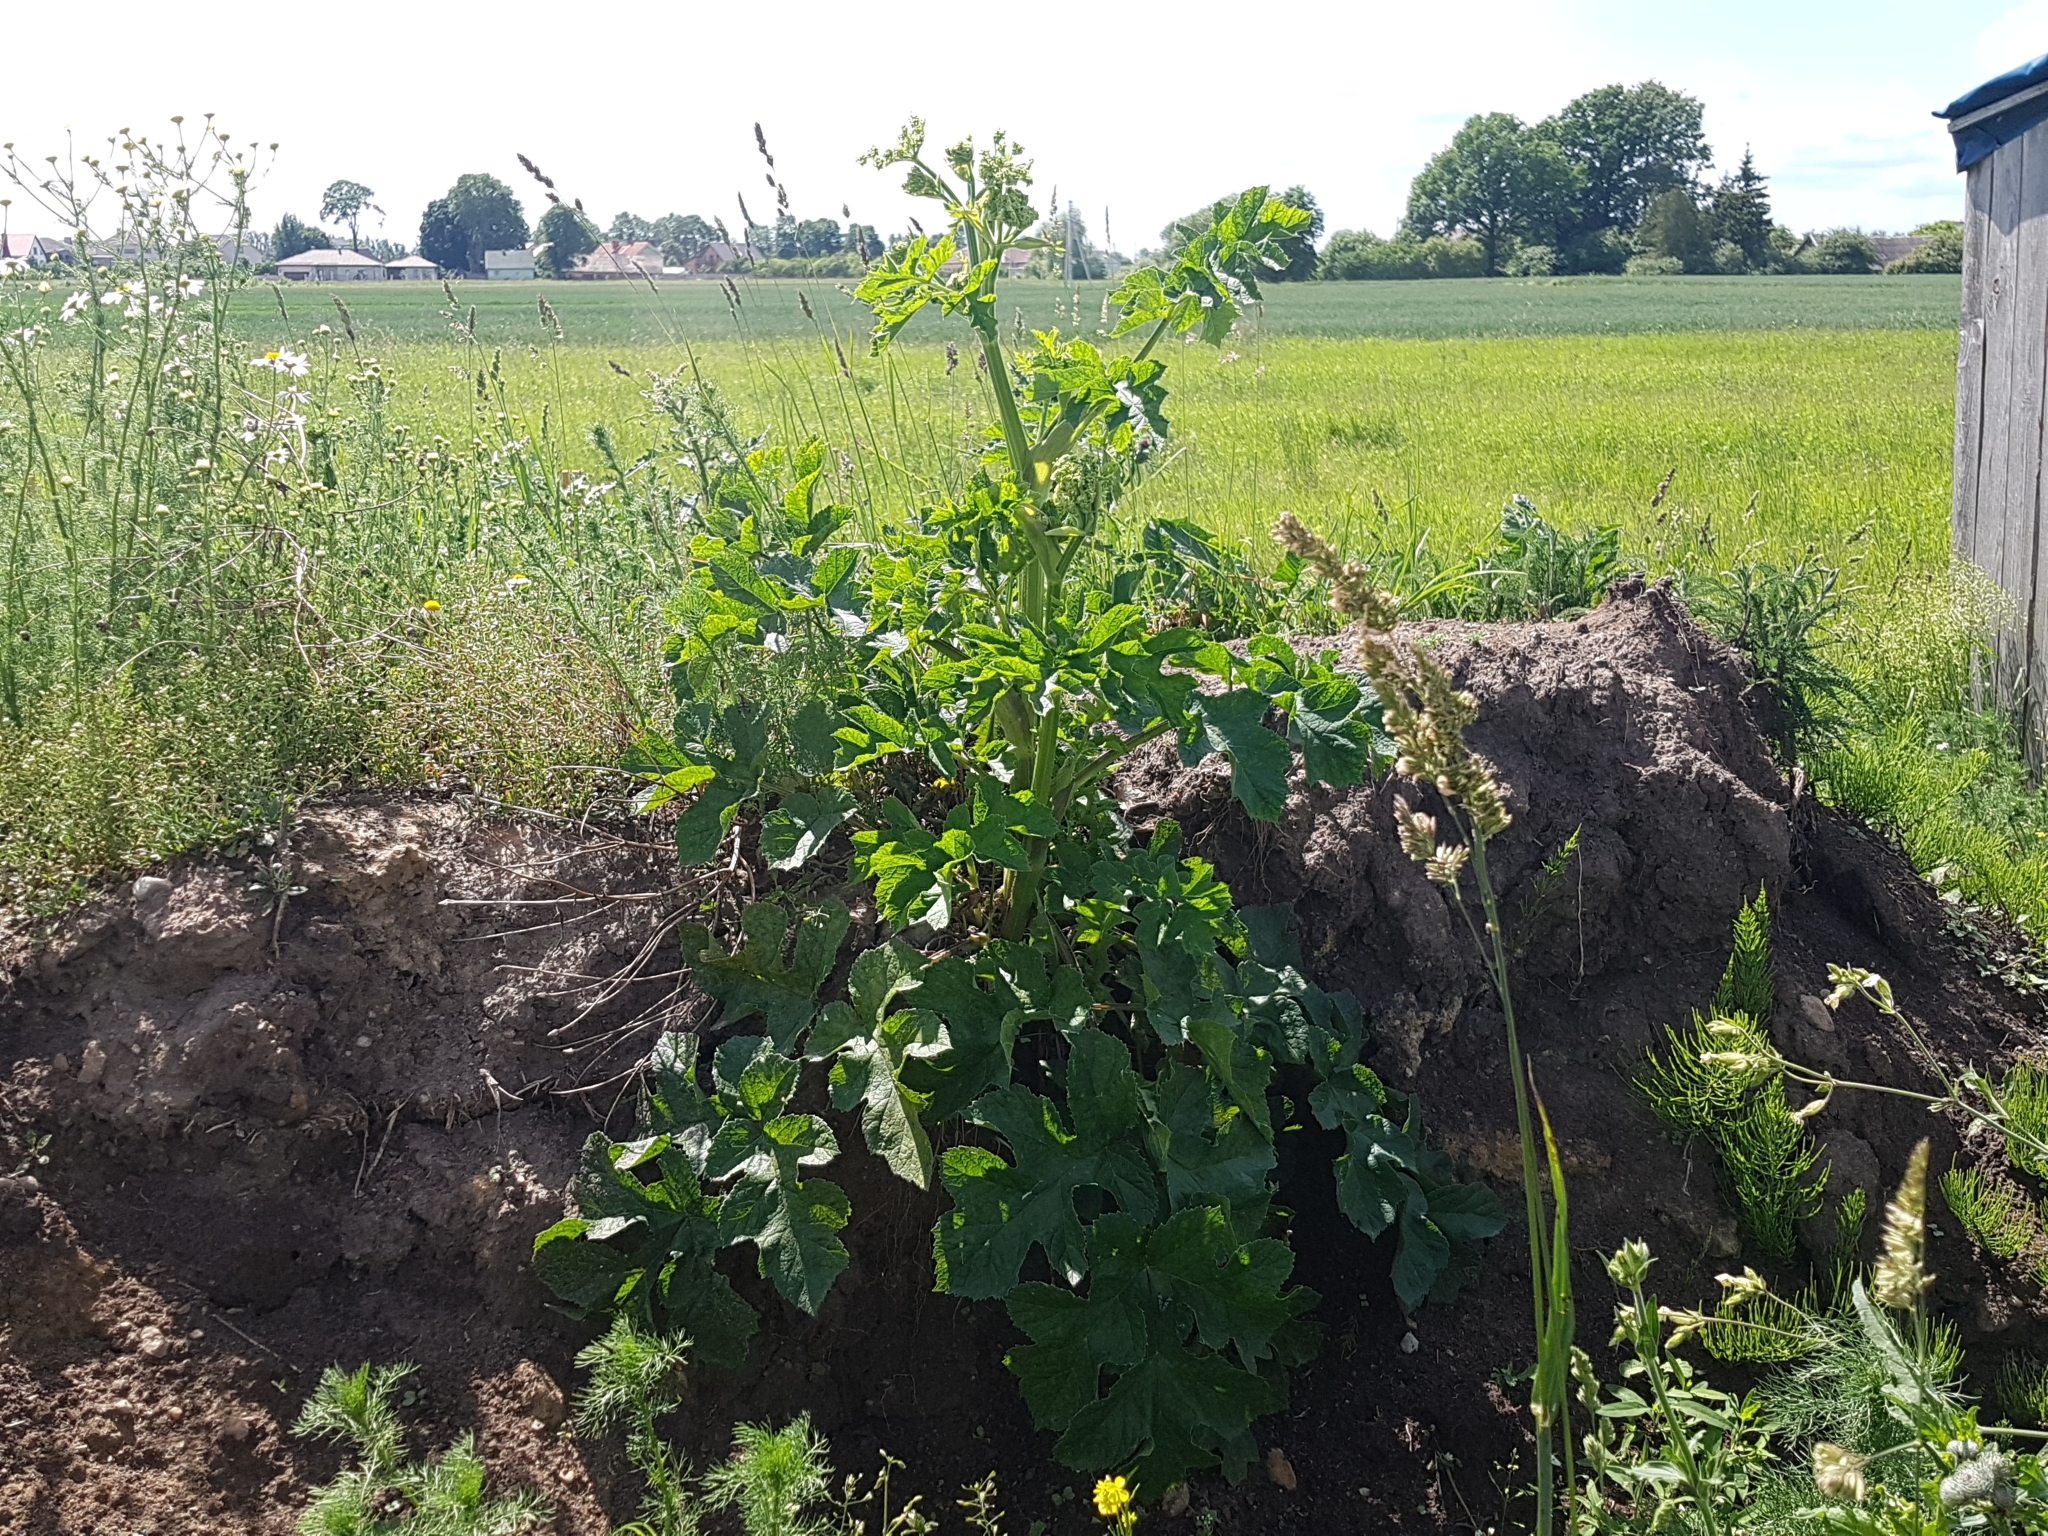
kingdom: Plantae
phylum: Tracheophyta
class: Magnoliopsida
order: Apiales
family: Apiaceae
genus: Heracleum
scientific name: Heracleum sphondylium
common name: Hogweed
